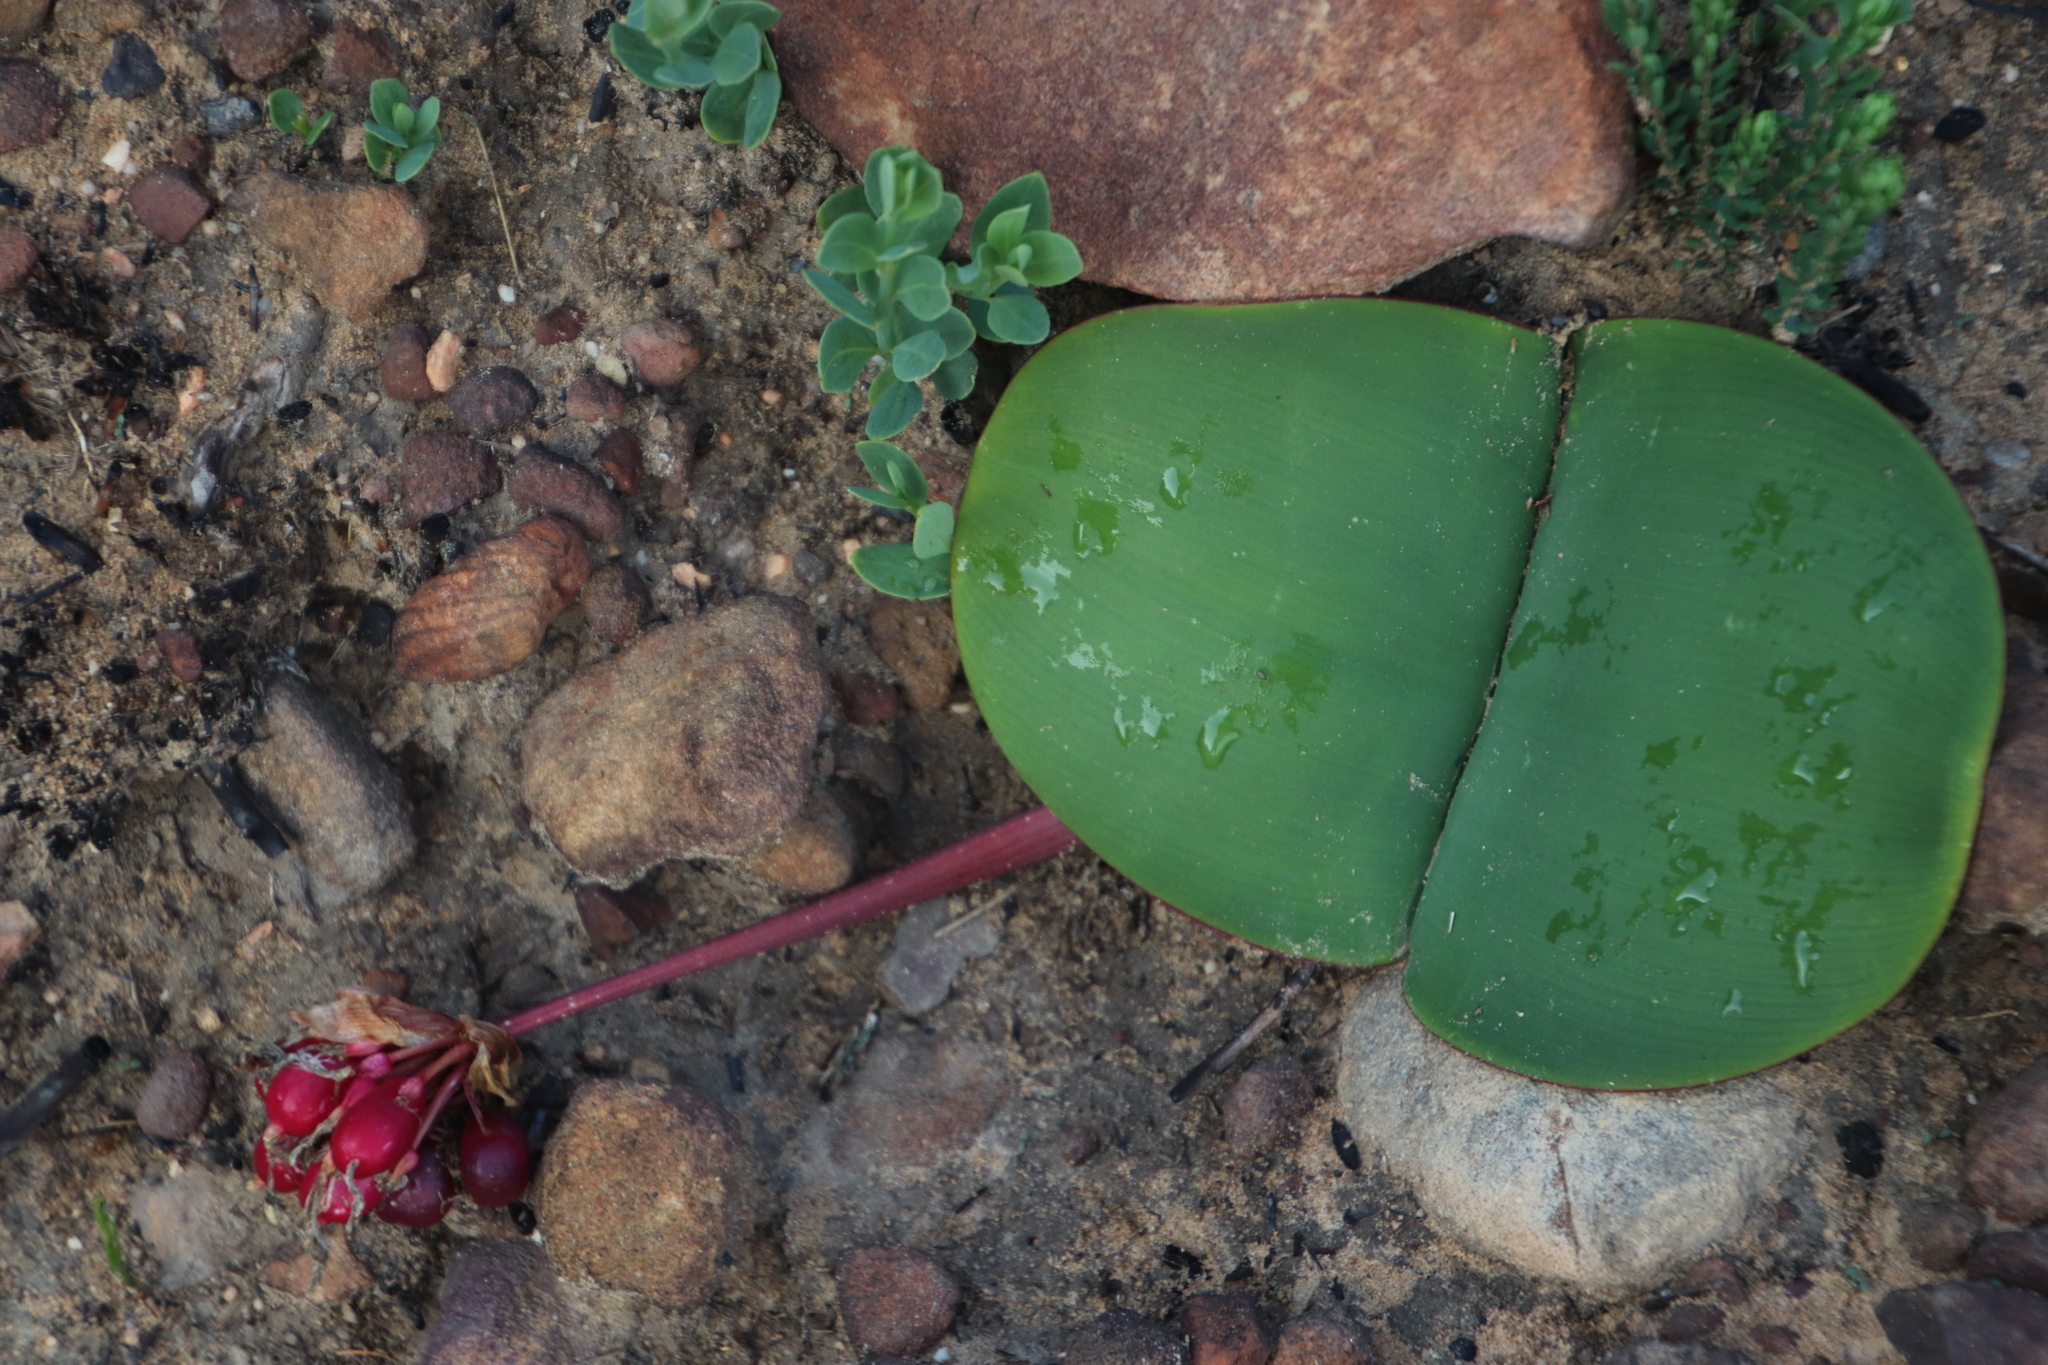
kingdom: Plantae
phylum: Tracheophyta
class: Liliopsida
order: Asparagales
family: Amaryllidaceae
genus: Haemanthus
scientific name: Haemanthus sanguineus
